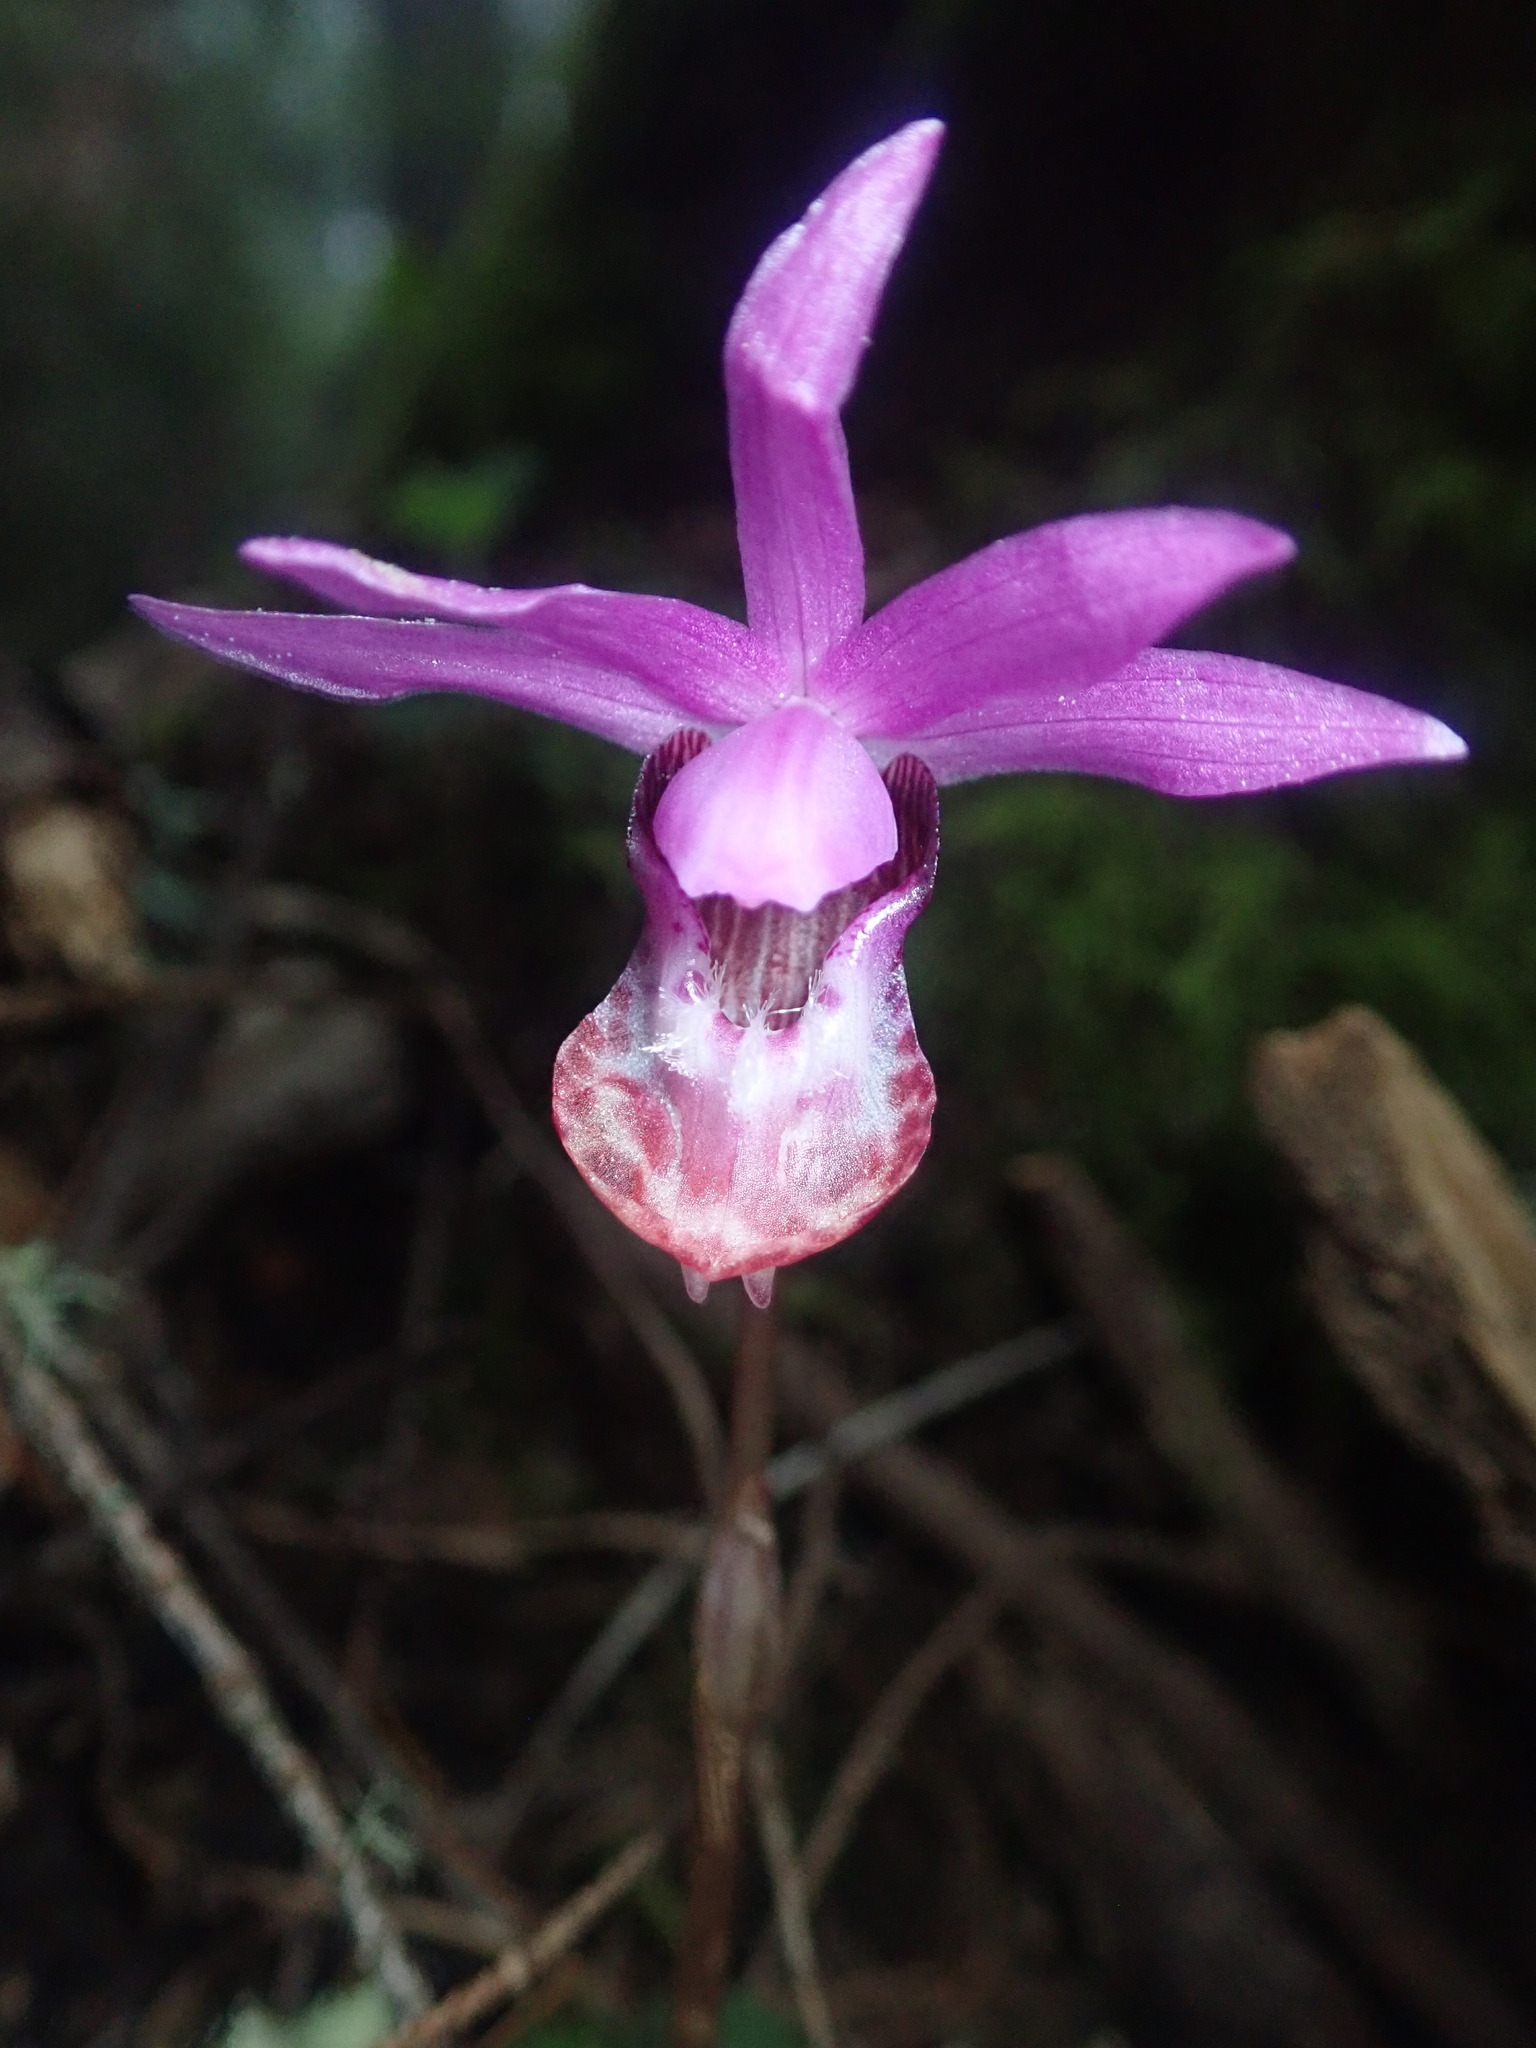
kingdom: Plantae
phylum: Tracheophyta
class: Liliopsida
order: Asparagales
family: Orchidaceae
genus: Calypso
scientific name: Calypso bulbosa
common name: Calypso
